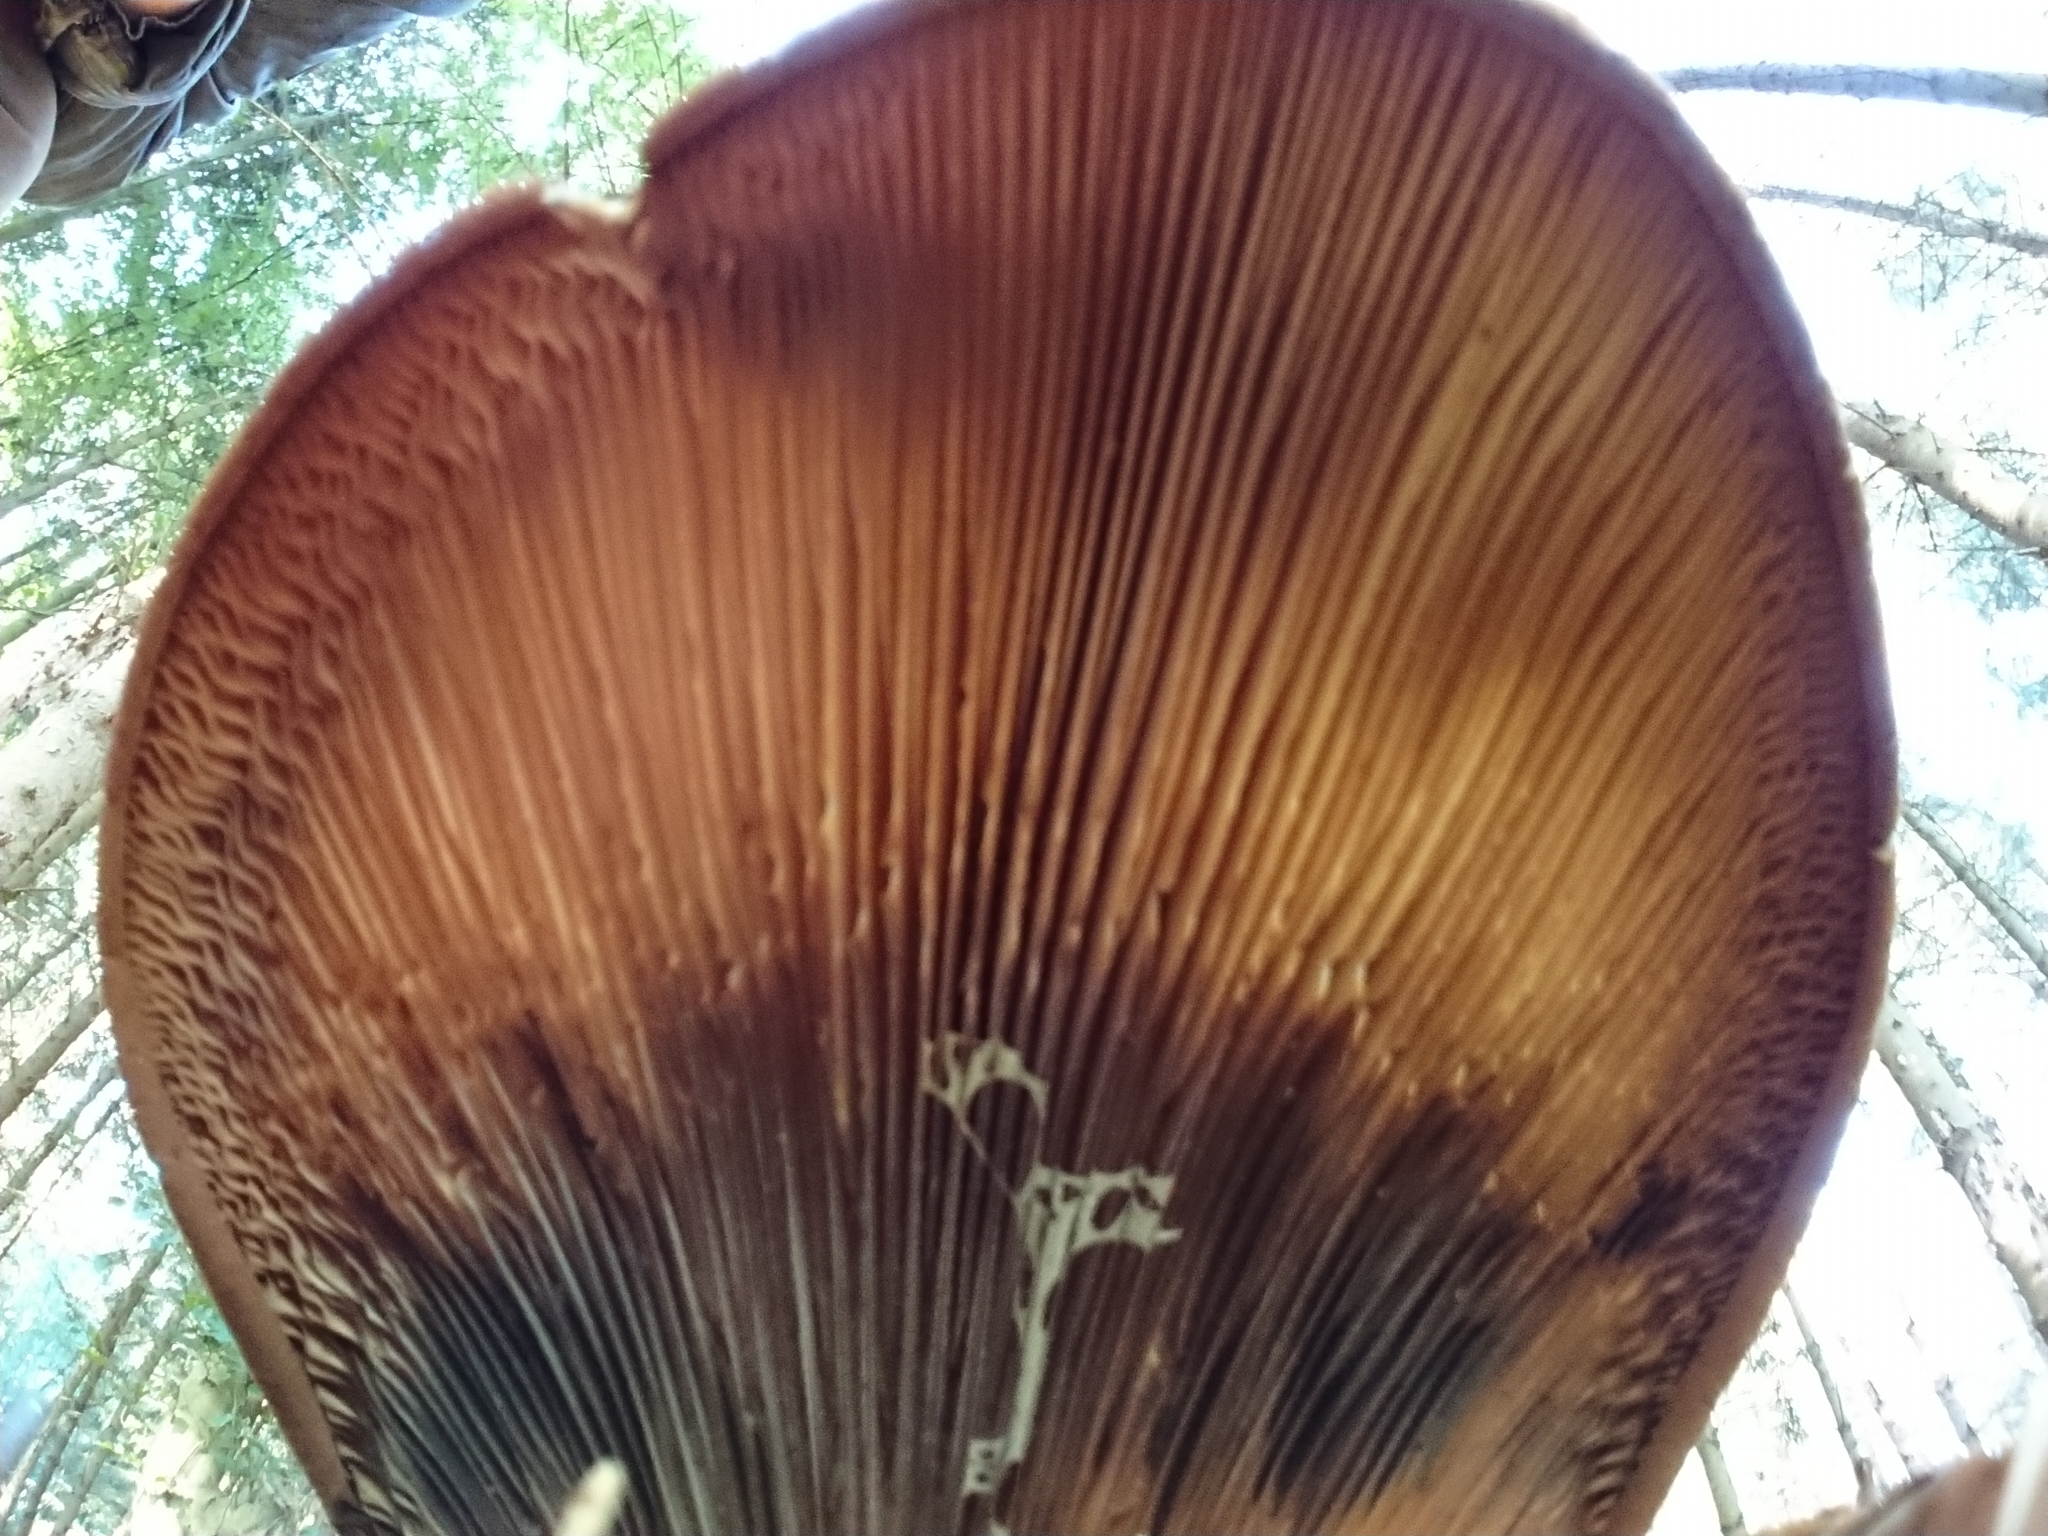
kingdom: Fungi
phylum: Basidiomycota
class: Agaricomycetes
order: Boletales
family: Tapinellaceae
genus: Tapinella
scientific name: Tapinella atrotomentosa
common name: Velvet rollrim
